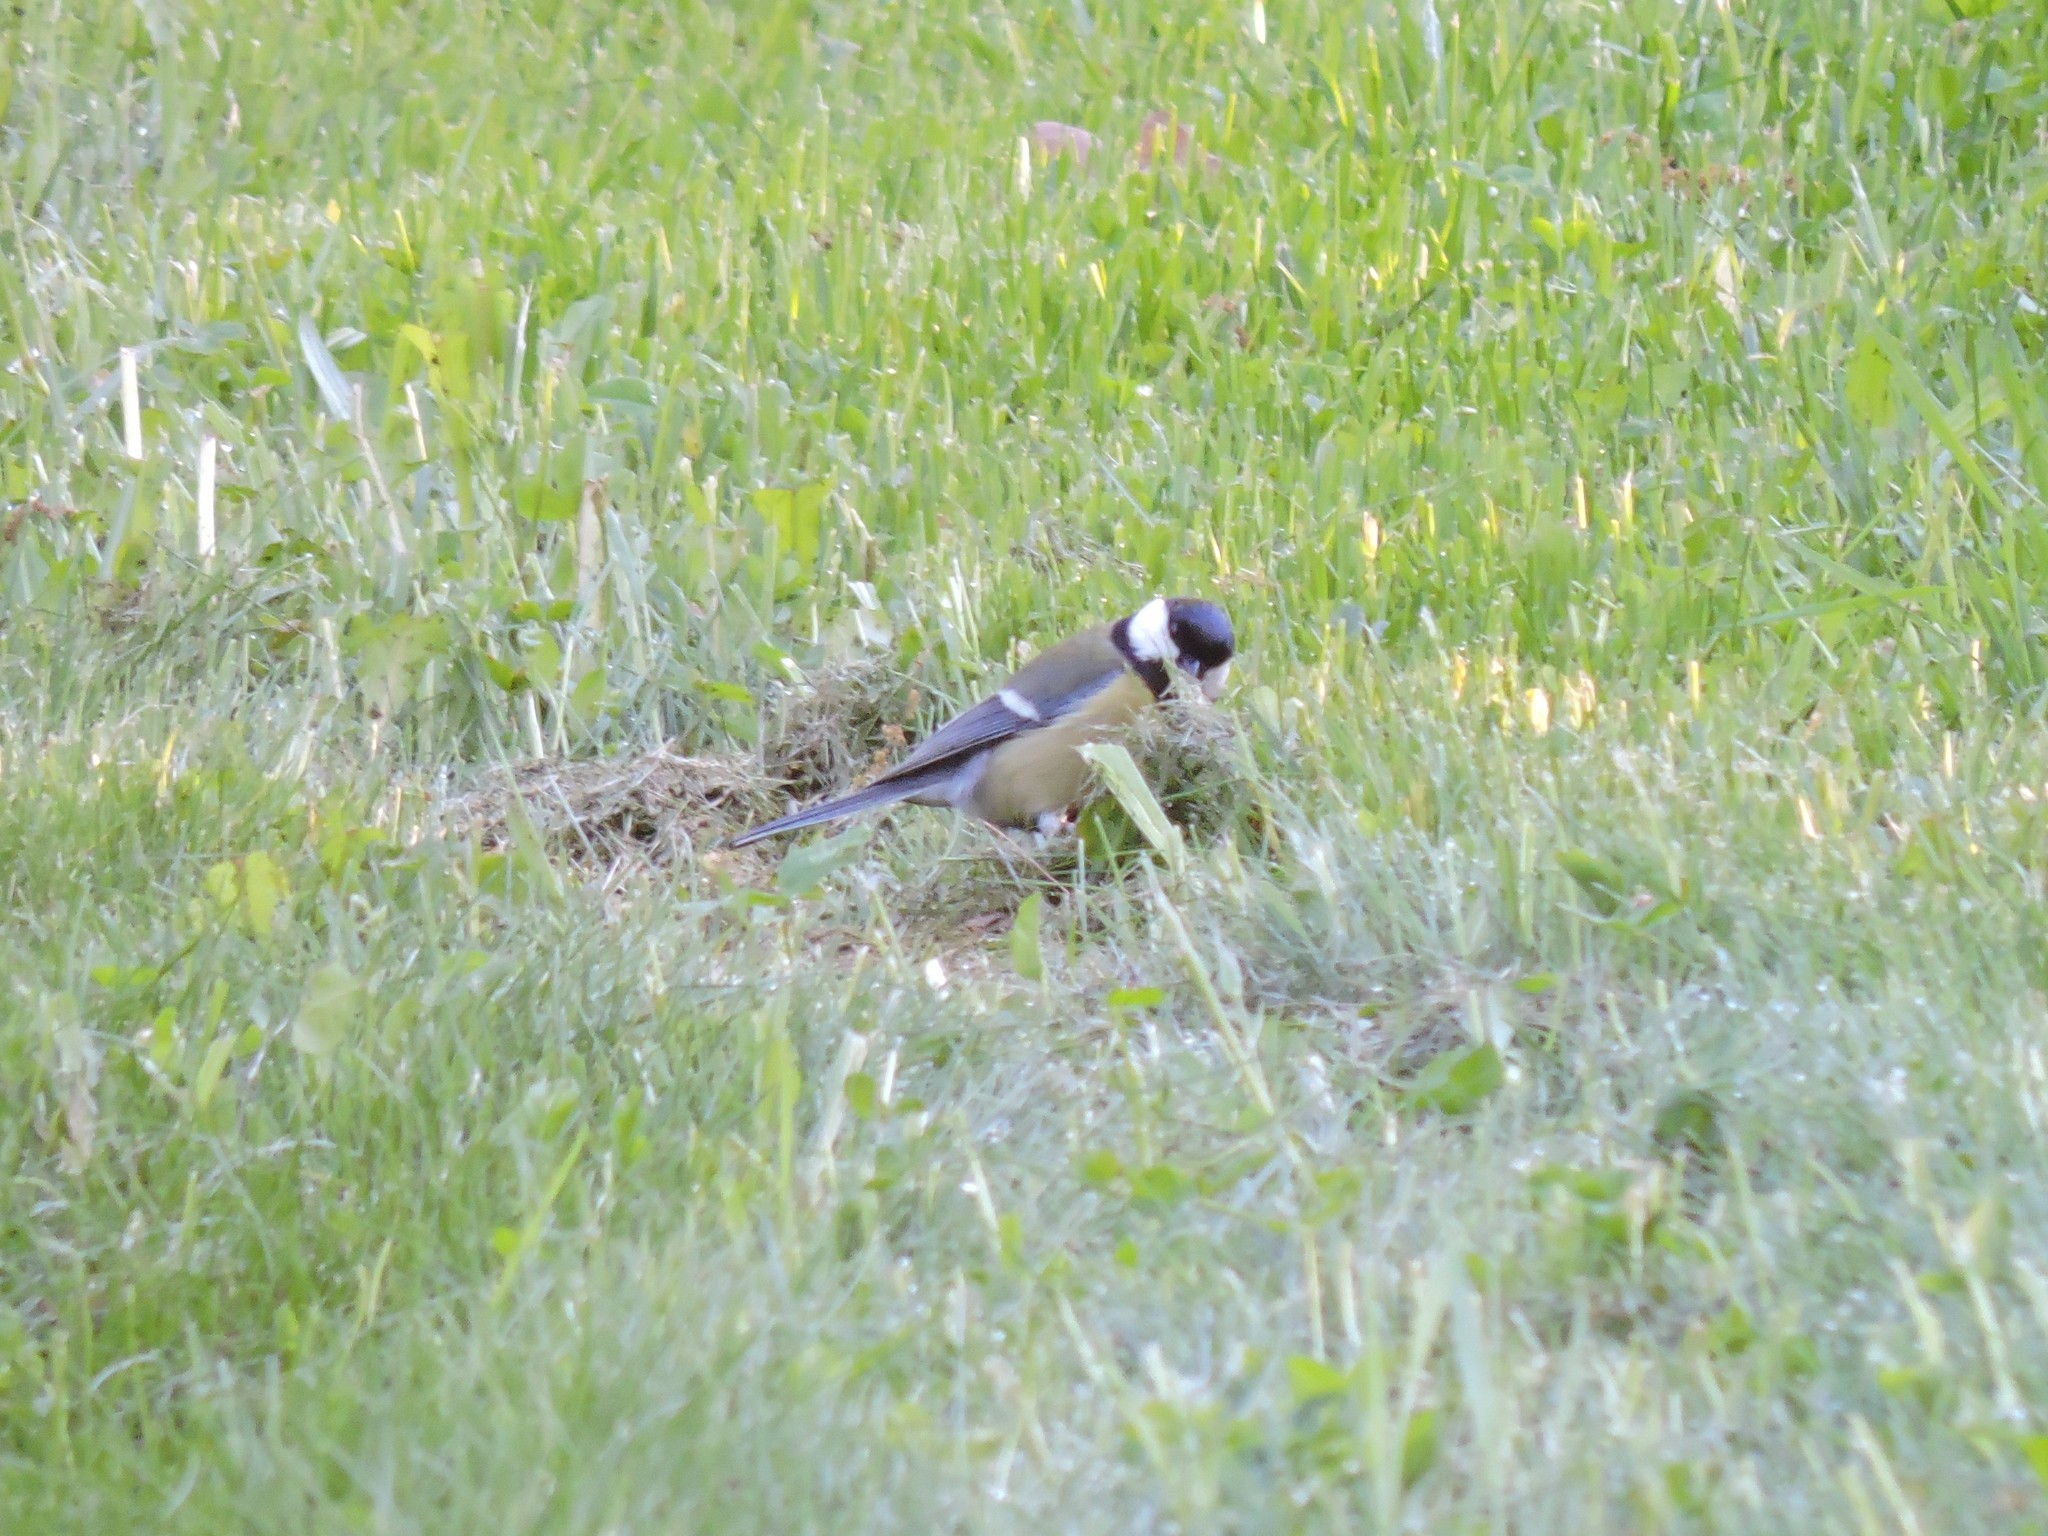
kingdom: Animalia
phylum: Chordata
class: Aves
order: Passeriformes
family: Paridae
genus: Parus
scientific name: Parus major
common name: Great tit
